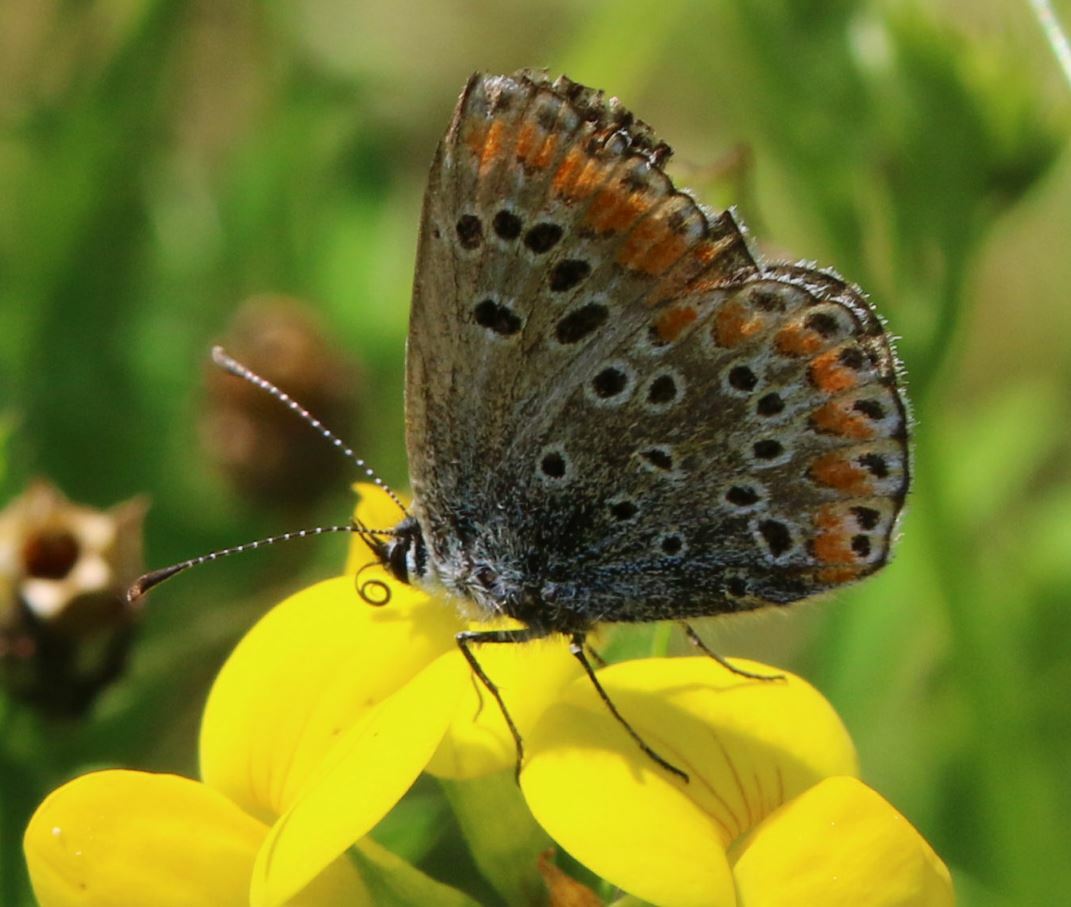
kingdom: Animalia
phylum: Arthropoda
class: Insecta
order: Lepidoptera
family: Lycaenidae
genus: Aricia
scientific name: Aricia agestis
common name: Brown argus
